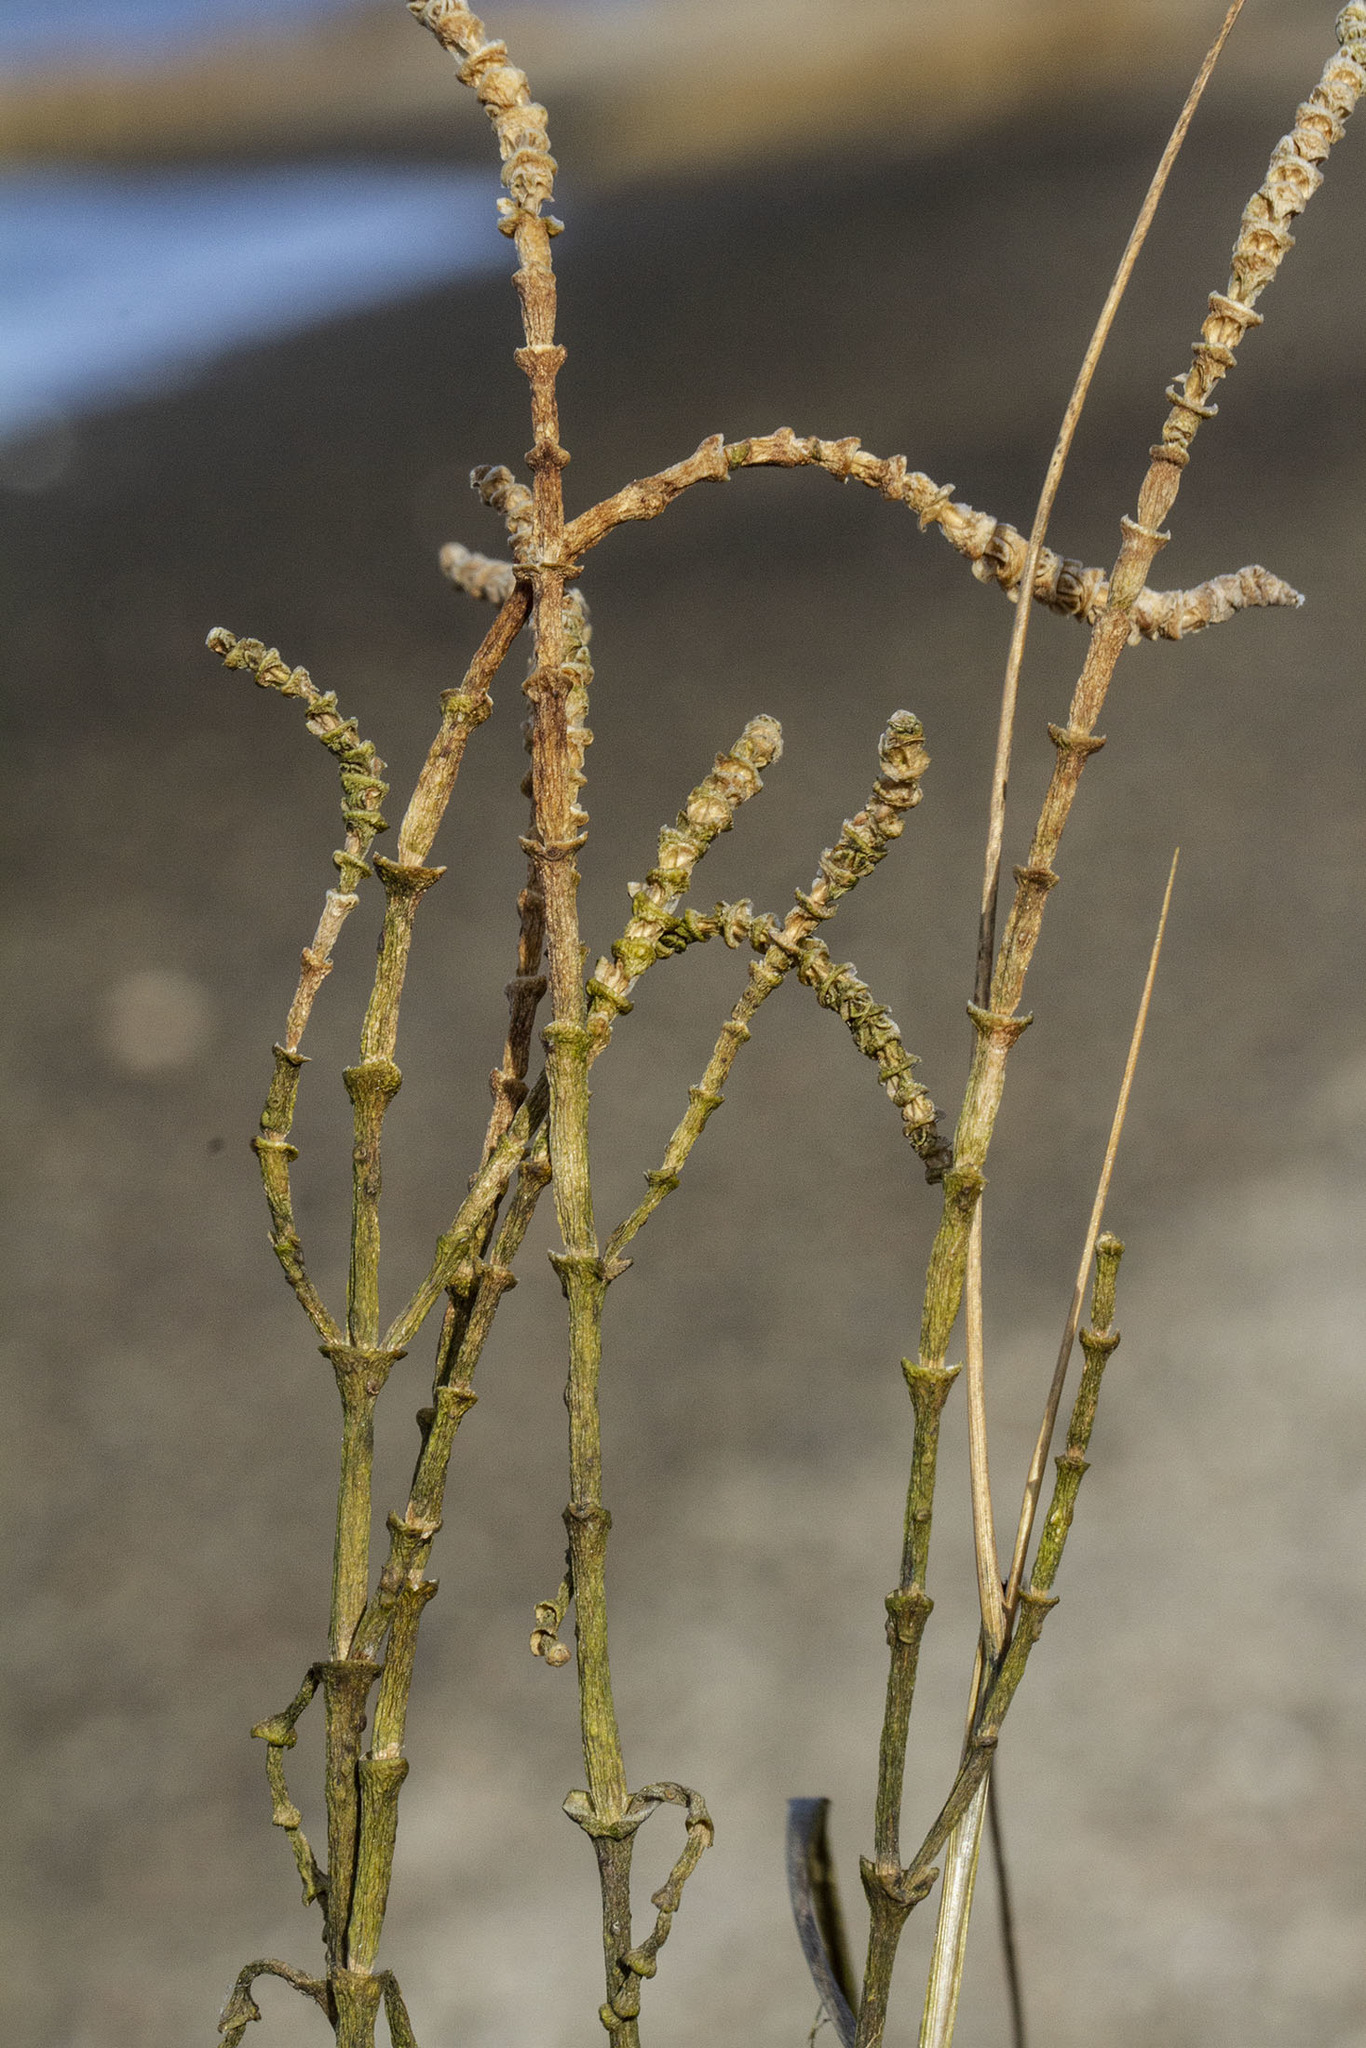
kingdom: Plantae
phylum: Tracheophyta
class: Magnoliopsida
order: Caryophyllales
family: Amaranthaceae
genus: Salicornia
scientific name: Salicornia virginica
